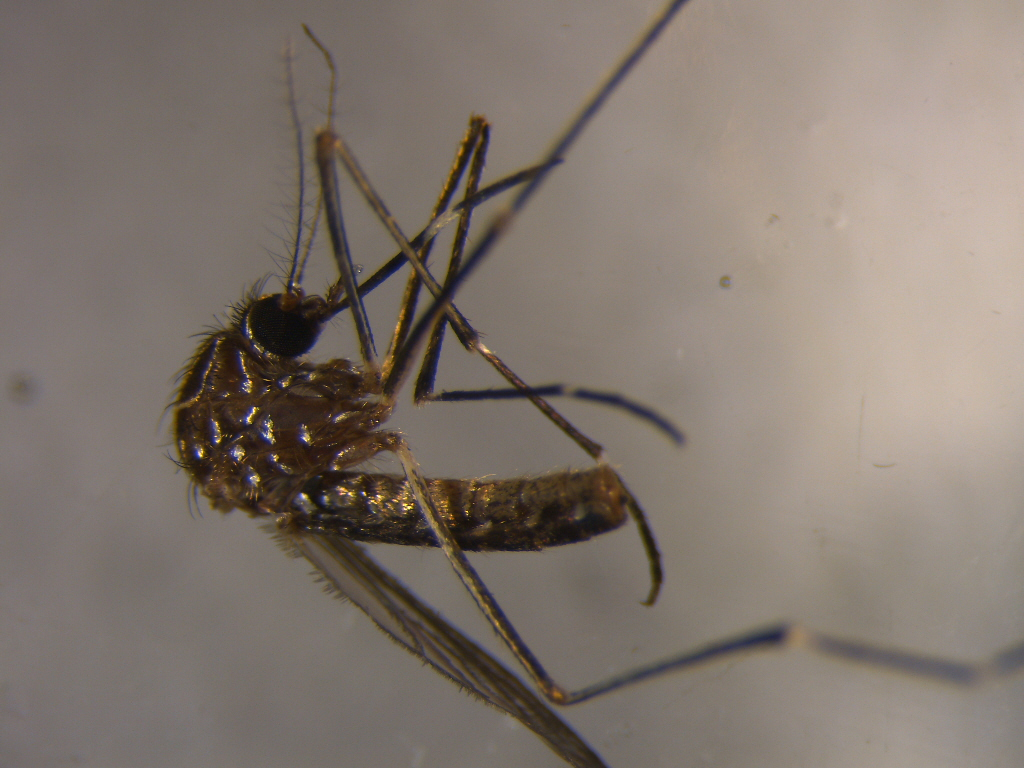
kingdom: Animalia
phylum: Arthropoda
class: Insecta
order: Diptera
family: Culicidae
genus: Aedes
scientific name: Aedes notoscriptus
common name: Australian backyard mosquito
